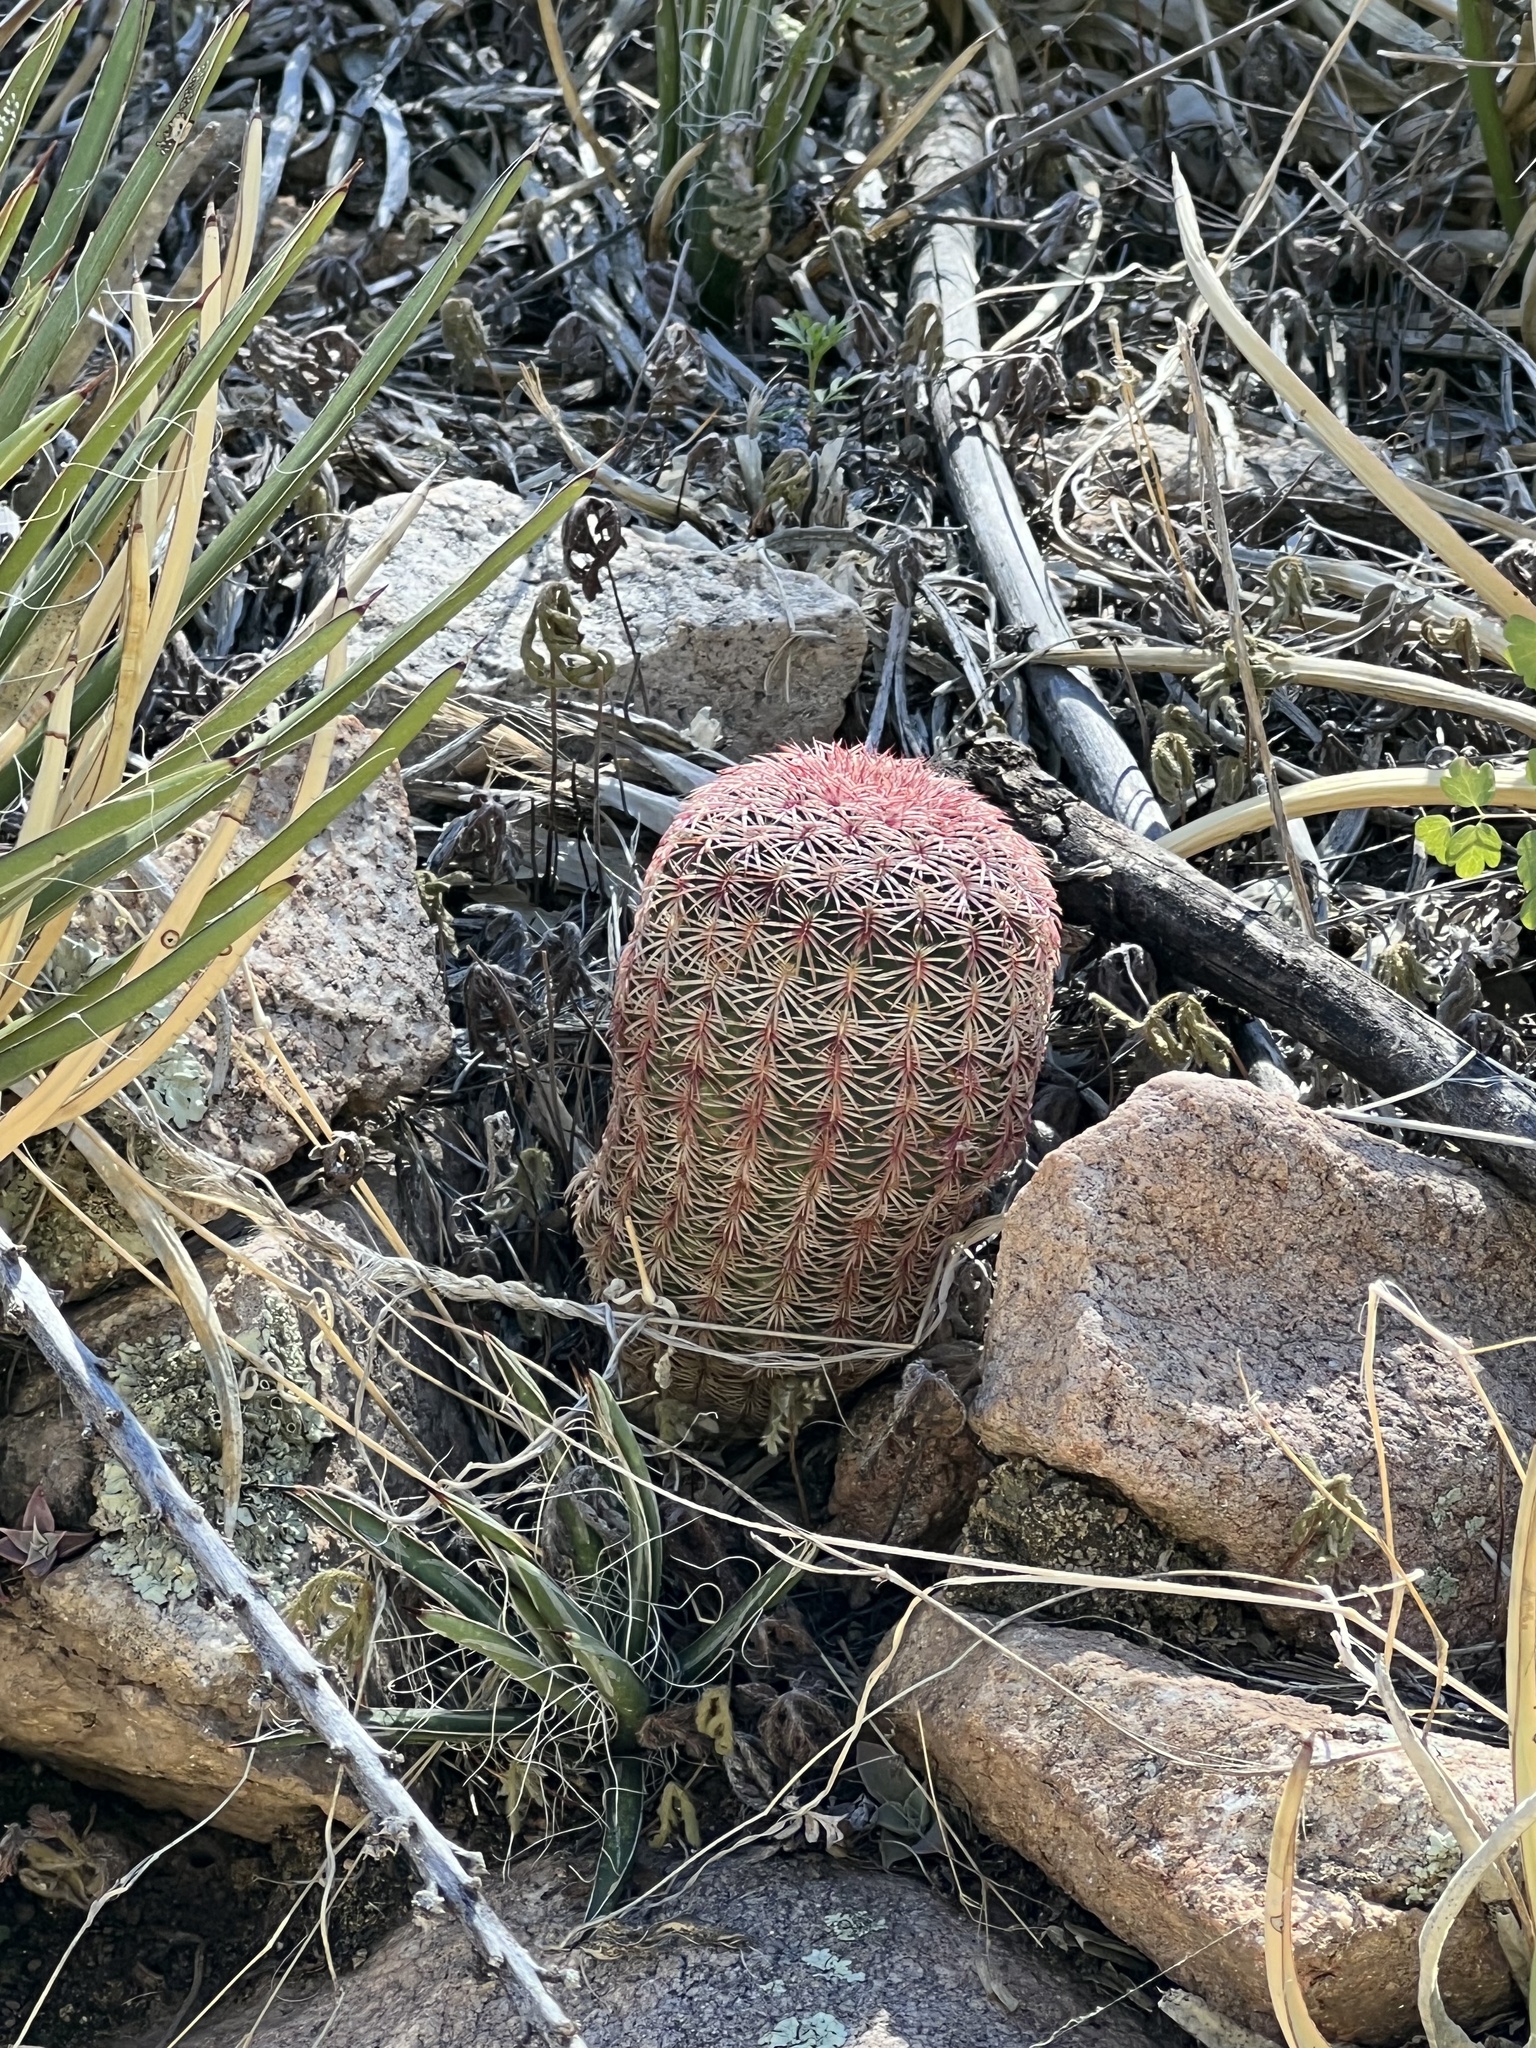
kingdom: Plantae
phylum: Tracheophyta
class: Magnoliopsida
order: Caryophyllales
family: Cactaceae
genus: Echinocereus
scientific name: Echinocereus rigidissimus
